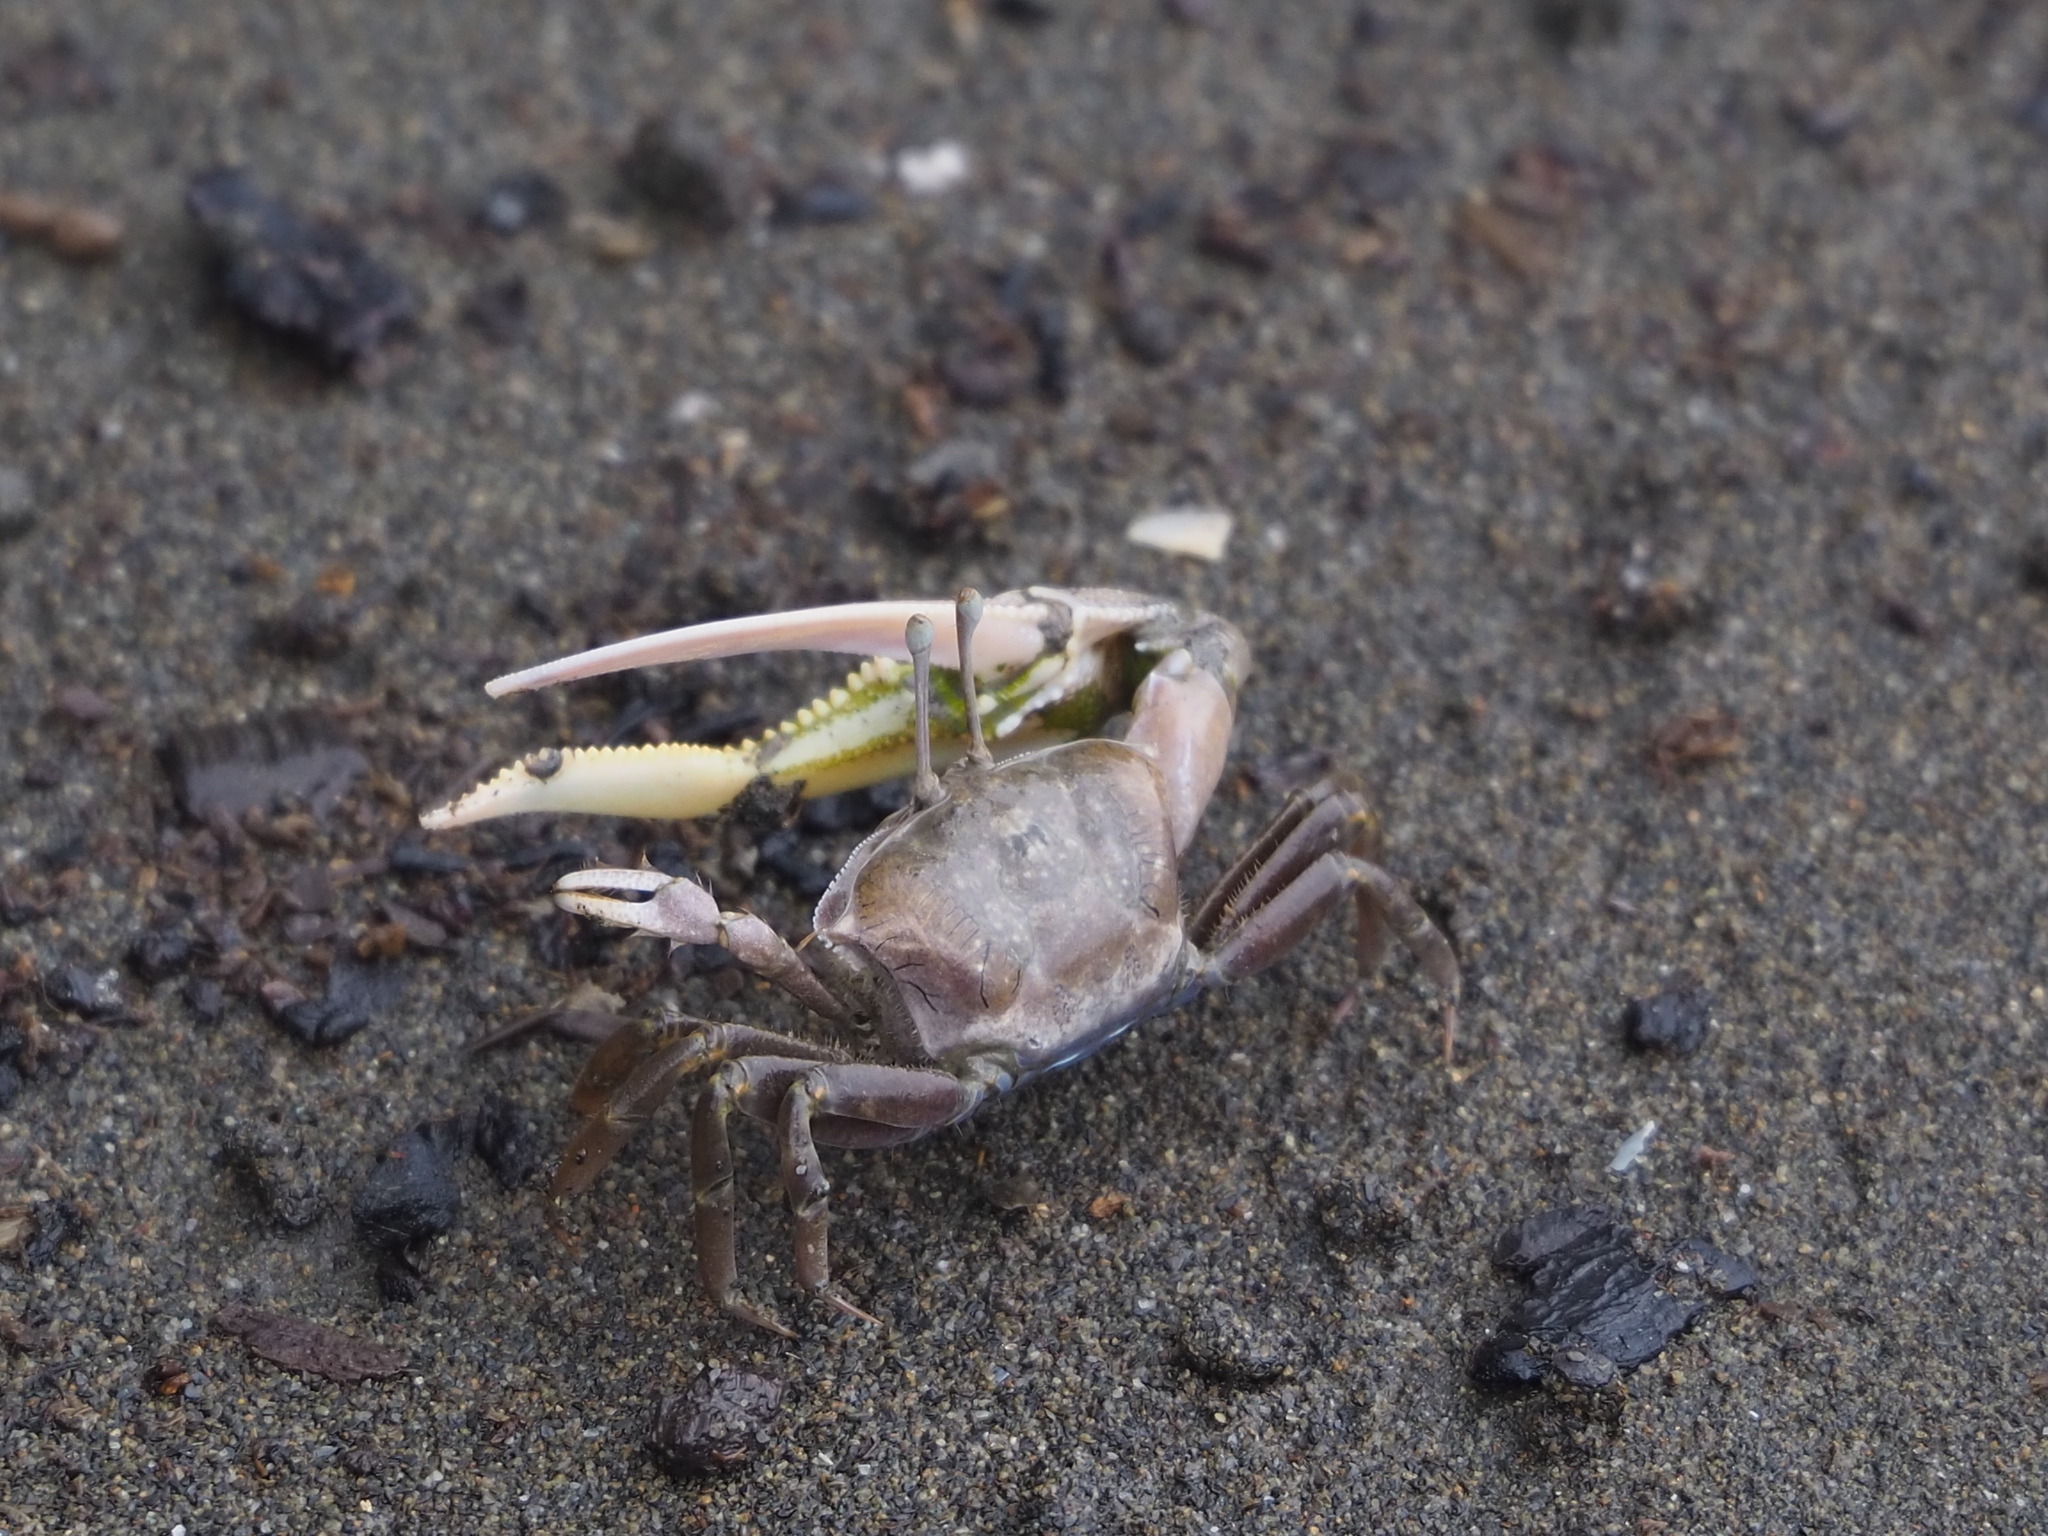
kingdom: Animalia
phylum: Arthropoda
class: Malacostraca
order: Decapoda
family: Ocypodidae
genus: Gelasimus
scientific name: Gelasimus borealis
